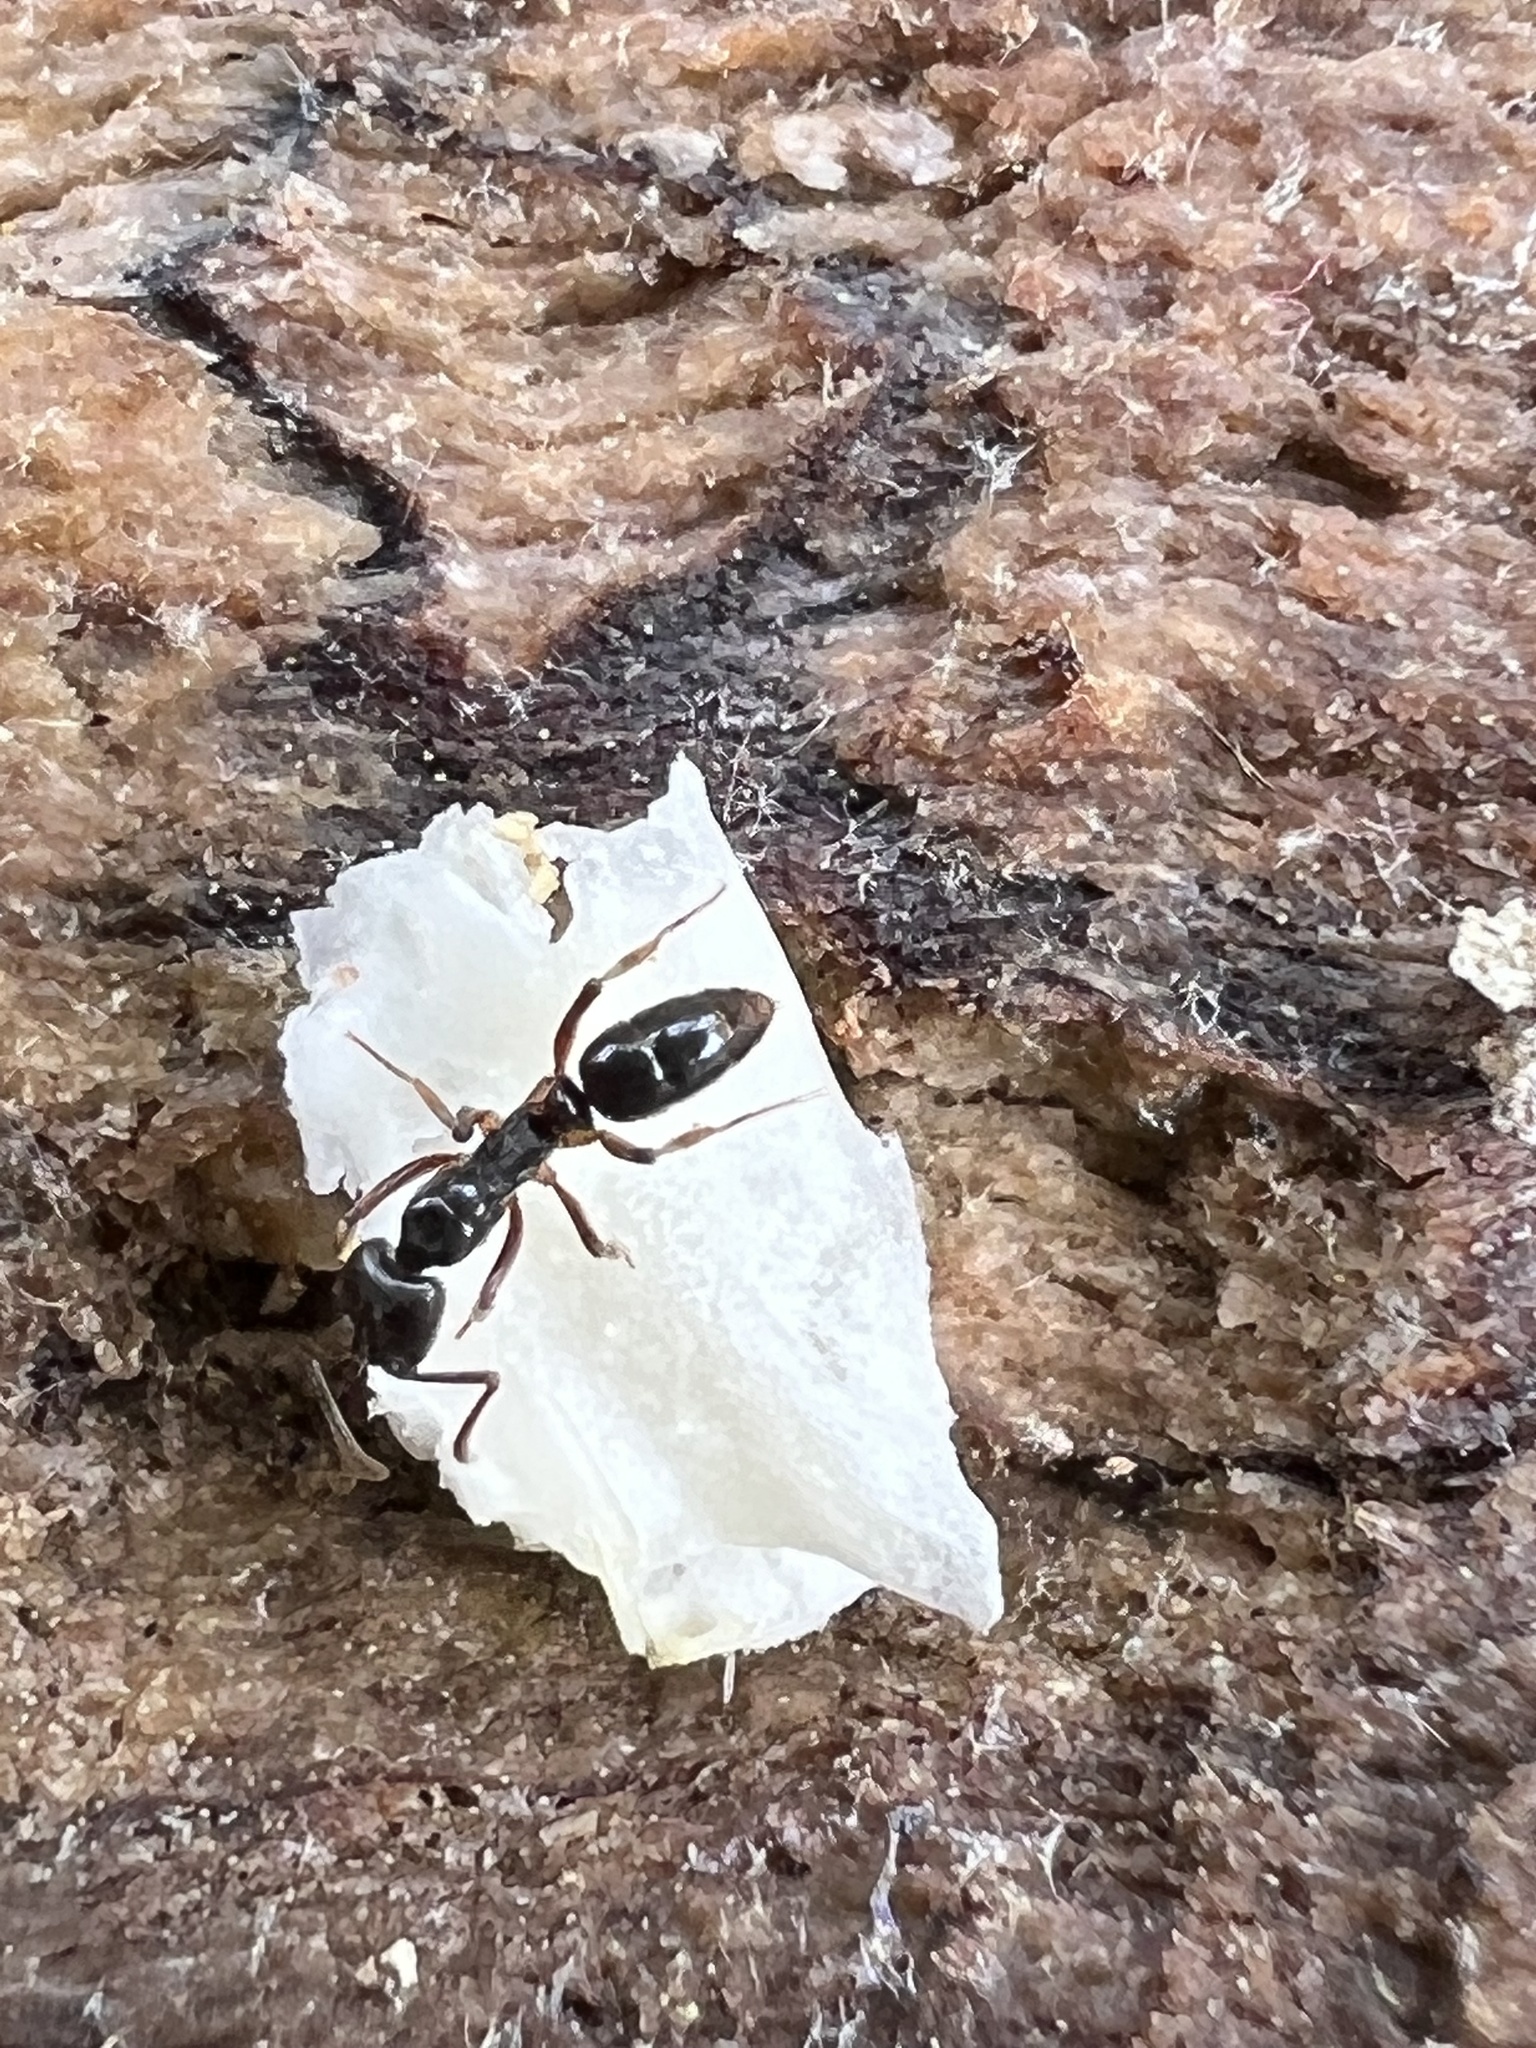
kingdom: Animalia
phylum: Arthropoda
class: Insecta
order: Hymenoptera
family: Formicidae
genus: Pachycondyla
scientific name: Pachycondyla chinensis
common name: Asian needle ant
